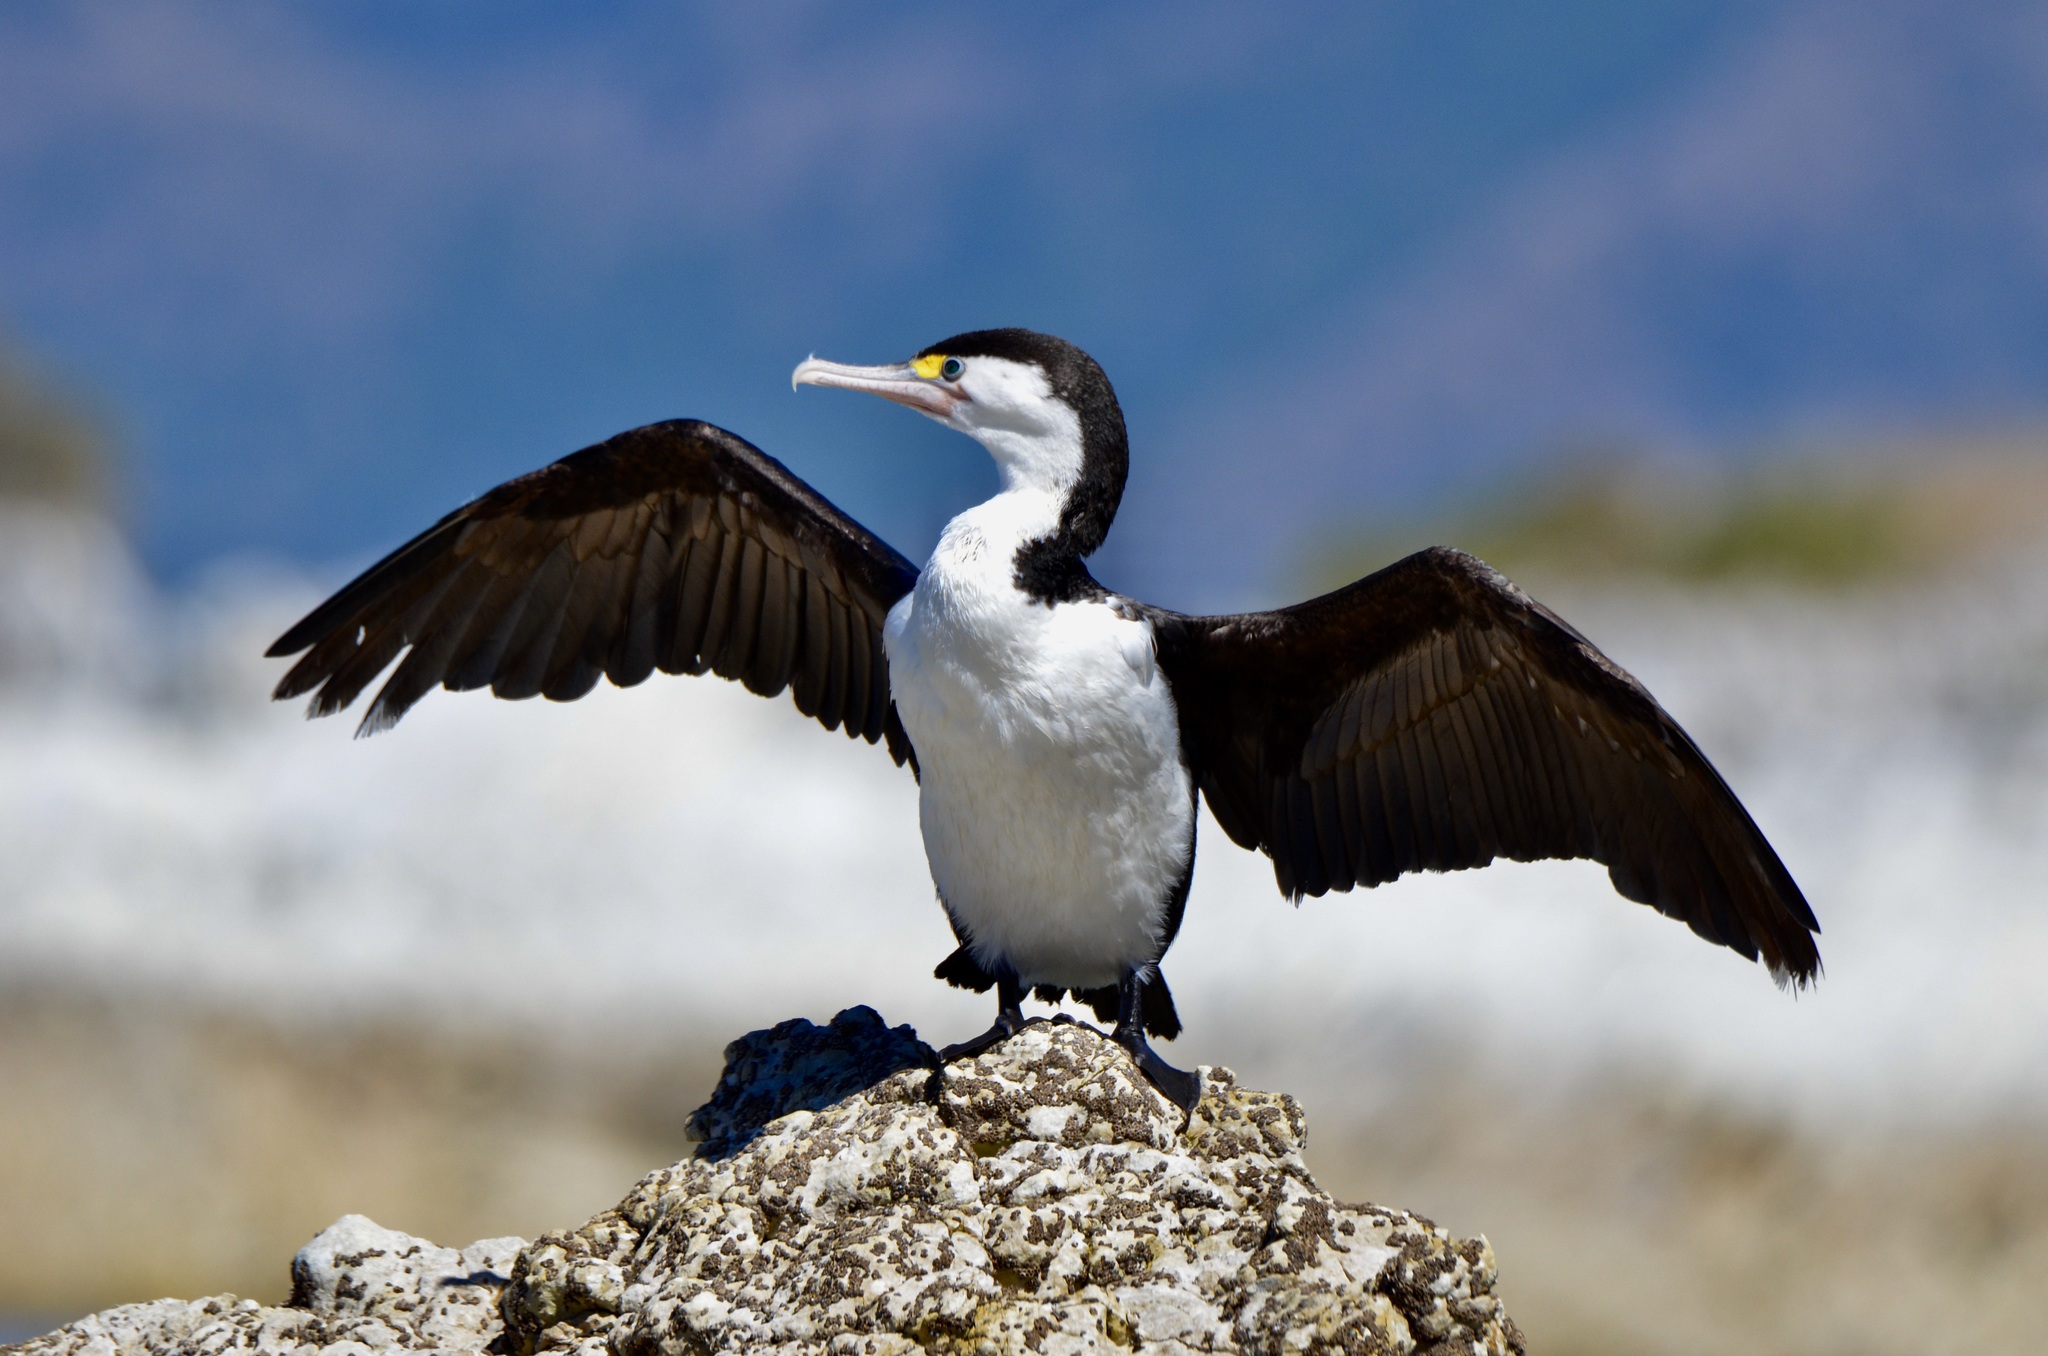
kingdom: Animalia
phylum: Chordata
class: Aves
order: Suliformes
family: Phalacrocoracidae
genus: Phalacrocorax
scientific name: Phalacrocorax varius
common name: Pied cormorant
